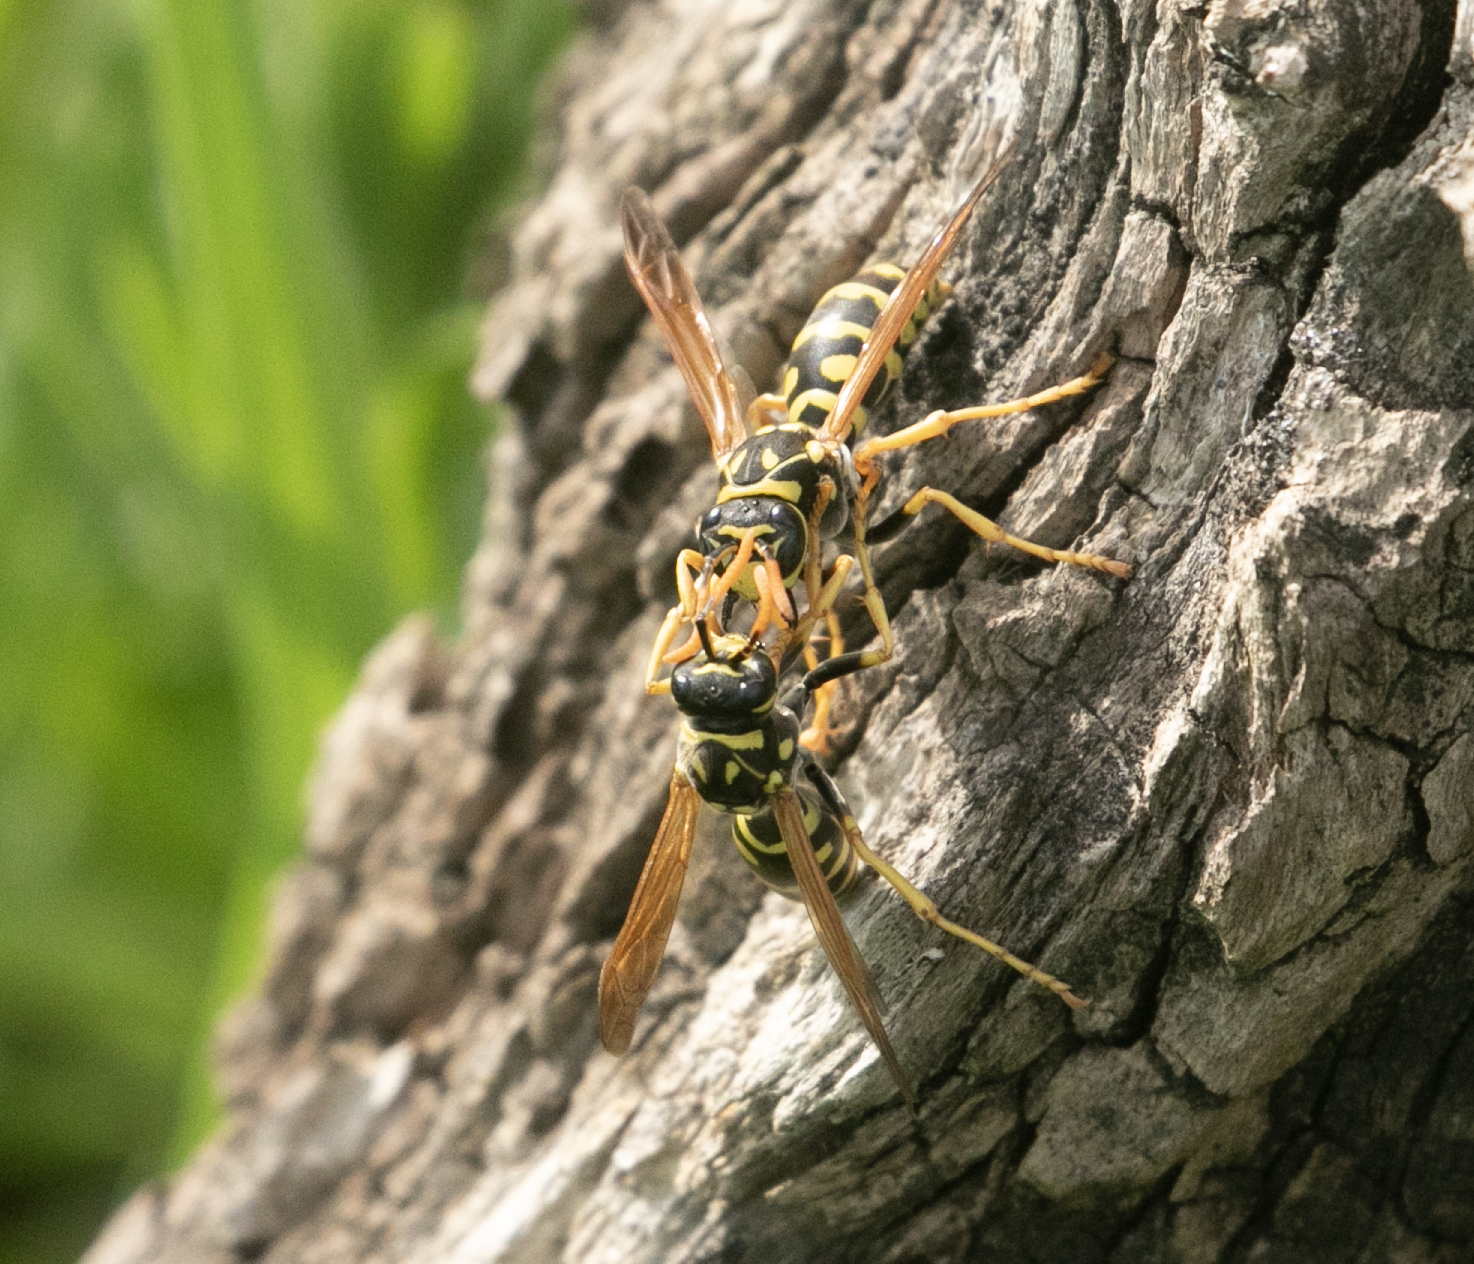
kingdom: Animalia
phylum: Arthropoda
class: Insecta
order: Hymenoptera
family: Eumenidae
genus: Polistes
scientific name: Polistes dominula
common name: Paper wasp
